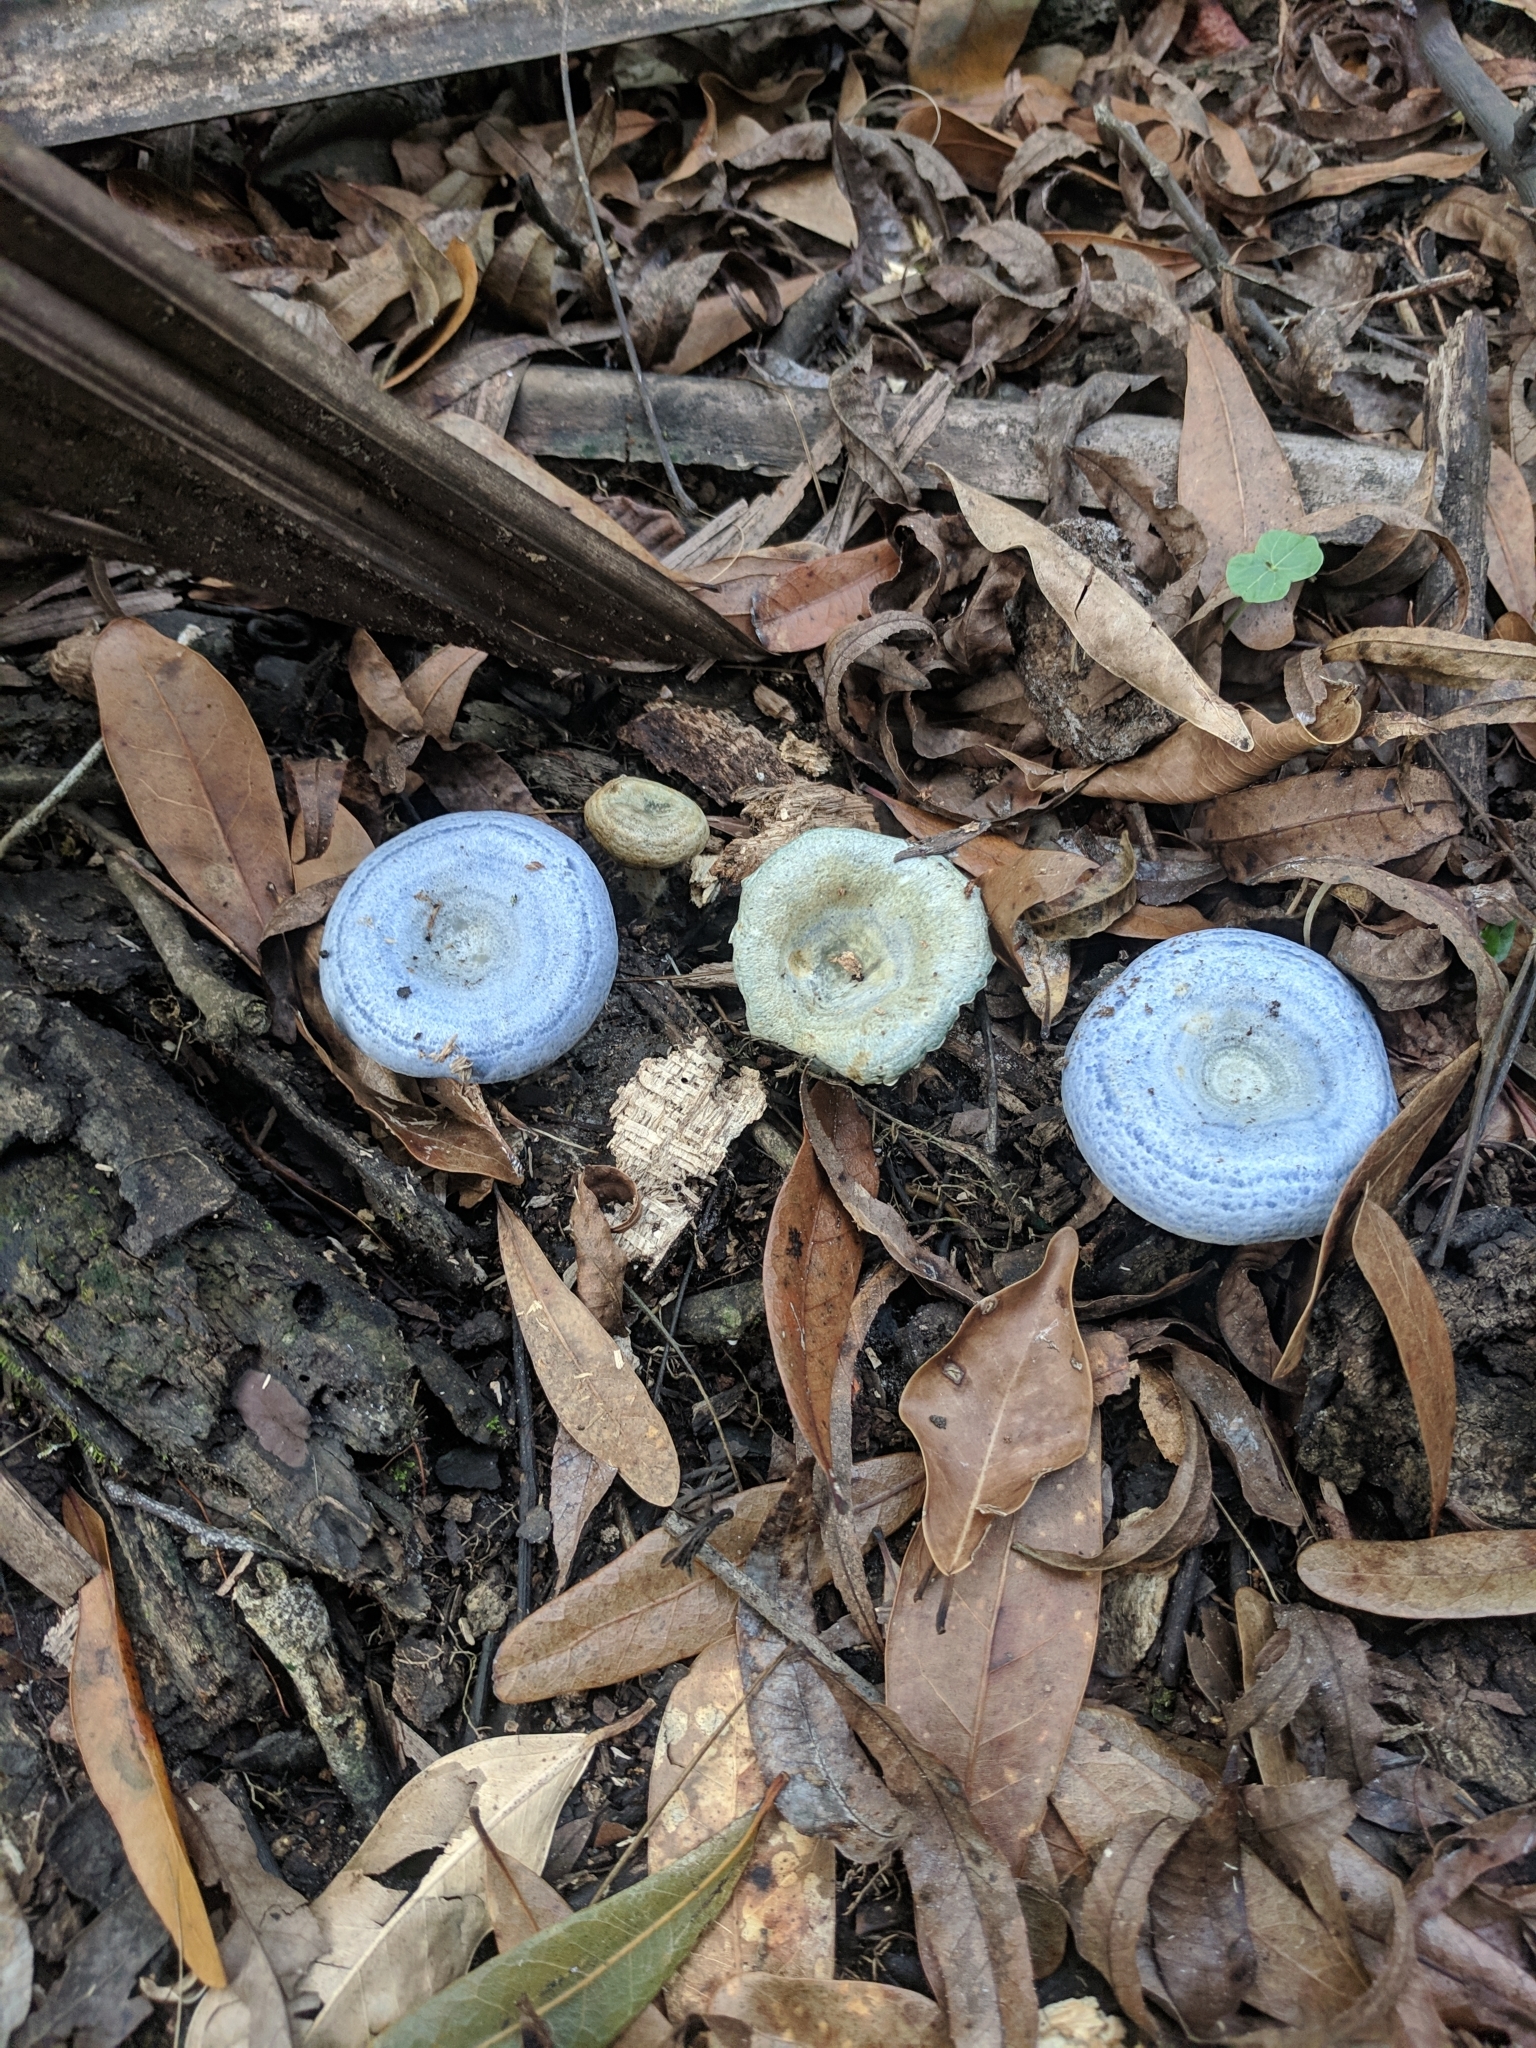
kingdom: Fungi
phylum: Basidiomycota
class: Agaricomycetes
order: Russulales
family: Russulaceae
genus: Lactarius
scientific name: Lactarius indigo
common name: Indigo milk cap
